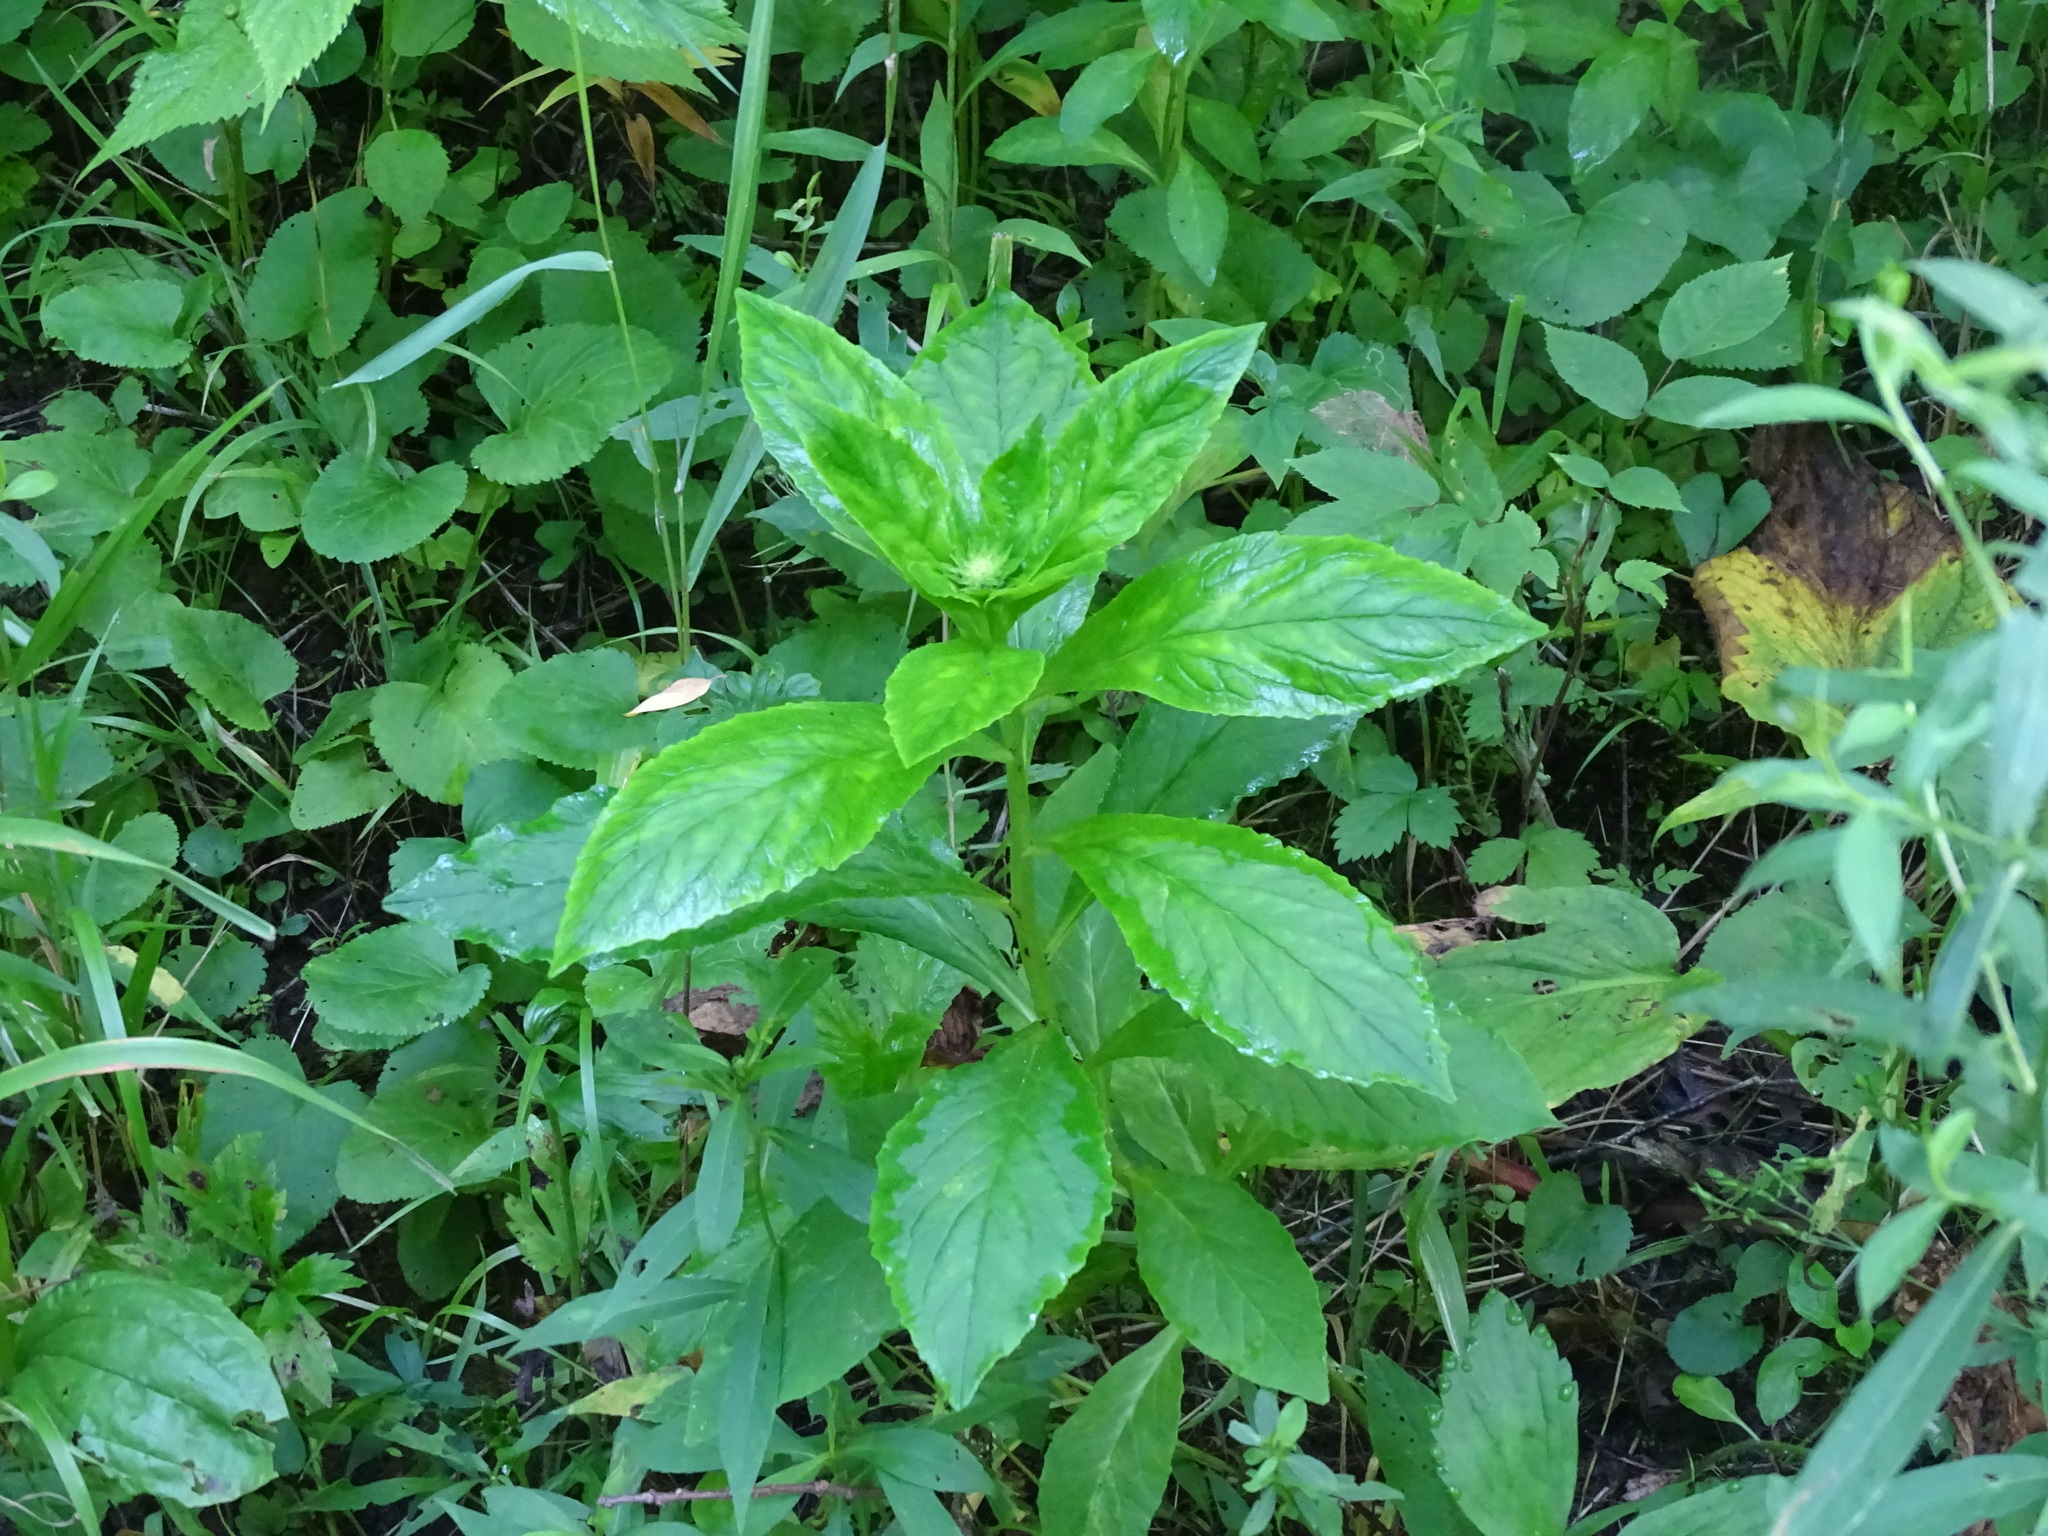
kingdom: Plantae
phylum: Tracheophyta
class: Magnoliopsida
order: Asterales
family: Campanulaceae
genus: Lobelia
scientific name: Lobelia siphilitica
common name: Great lobelia
